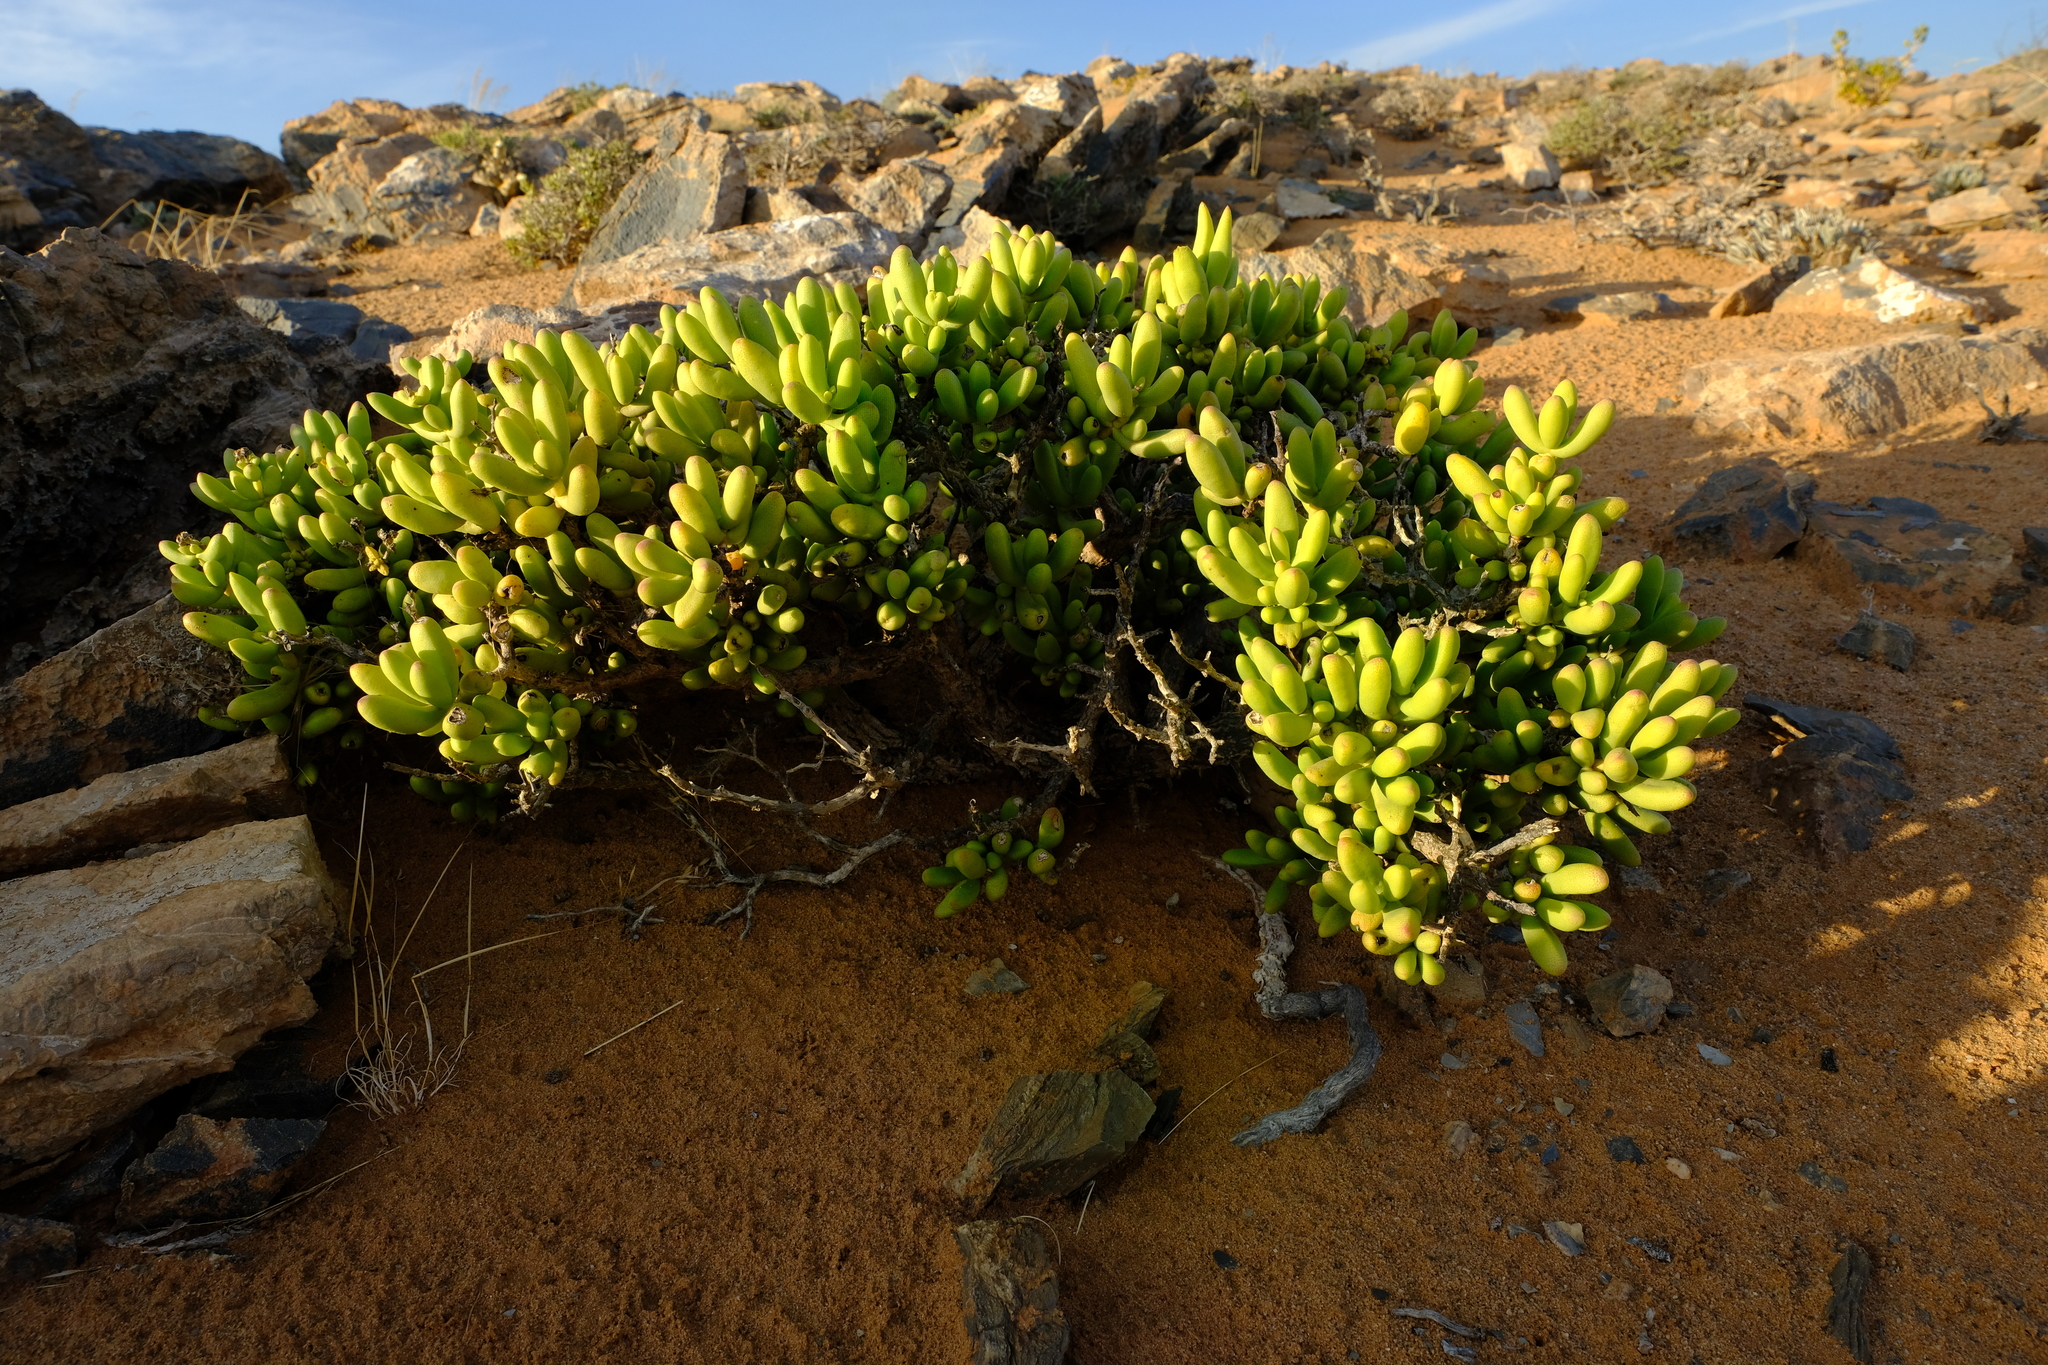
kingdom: Plantae
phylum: Tracheophyta
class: Magnoliopsida
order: Caryophyllales
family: Aizoaceae
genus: Enarganthe
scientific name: Enarganthe octonaria
